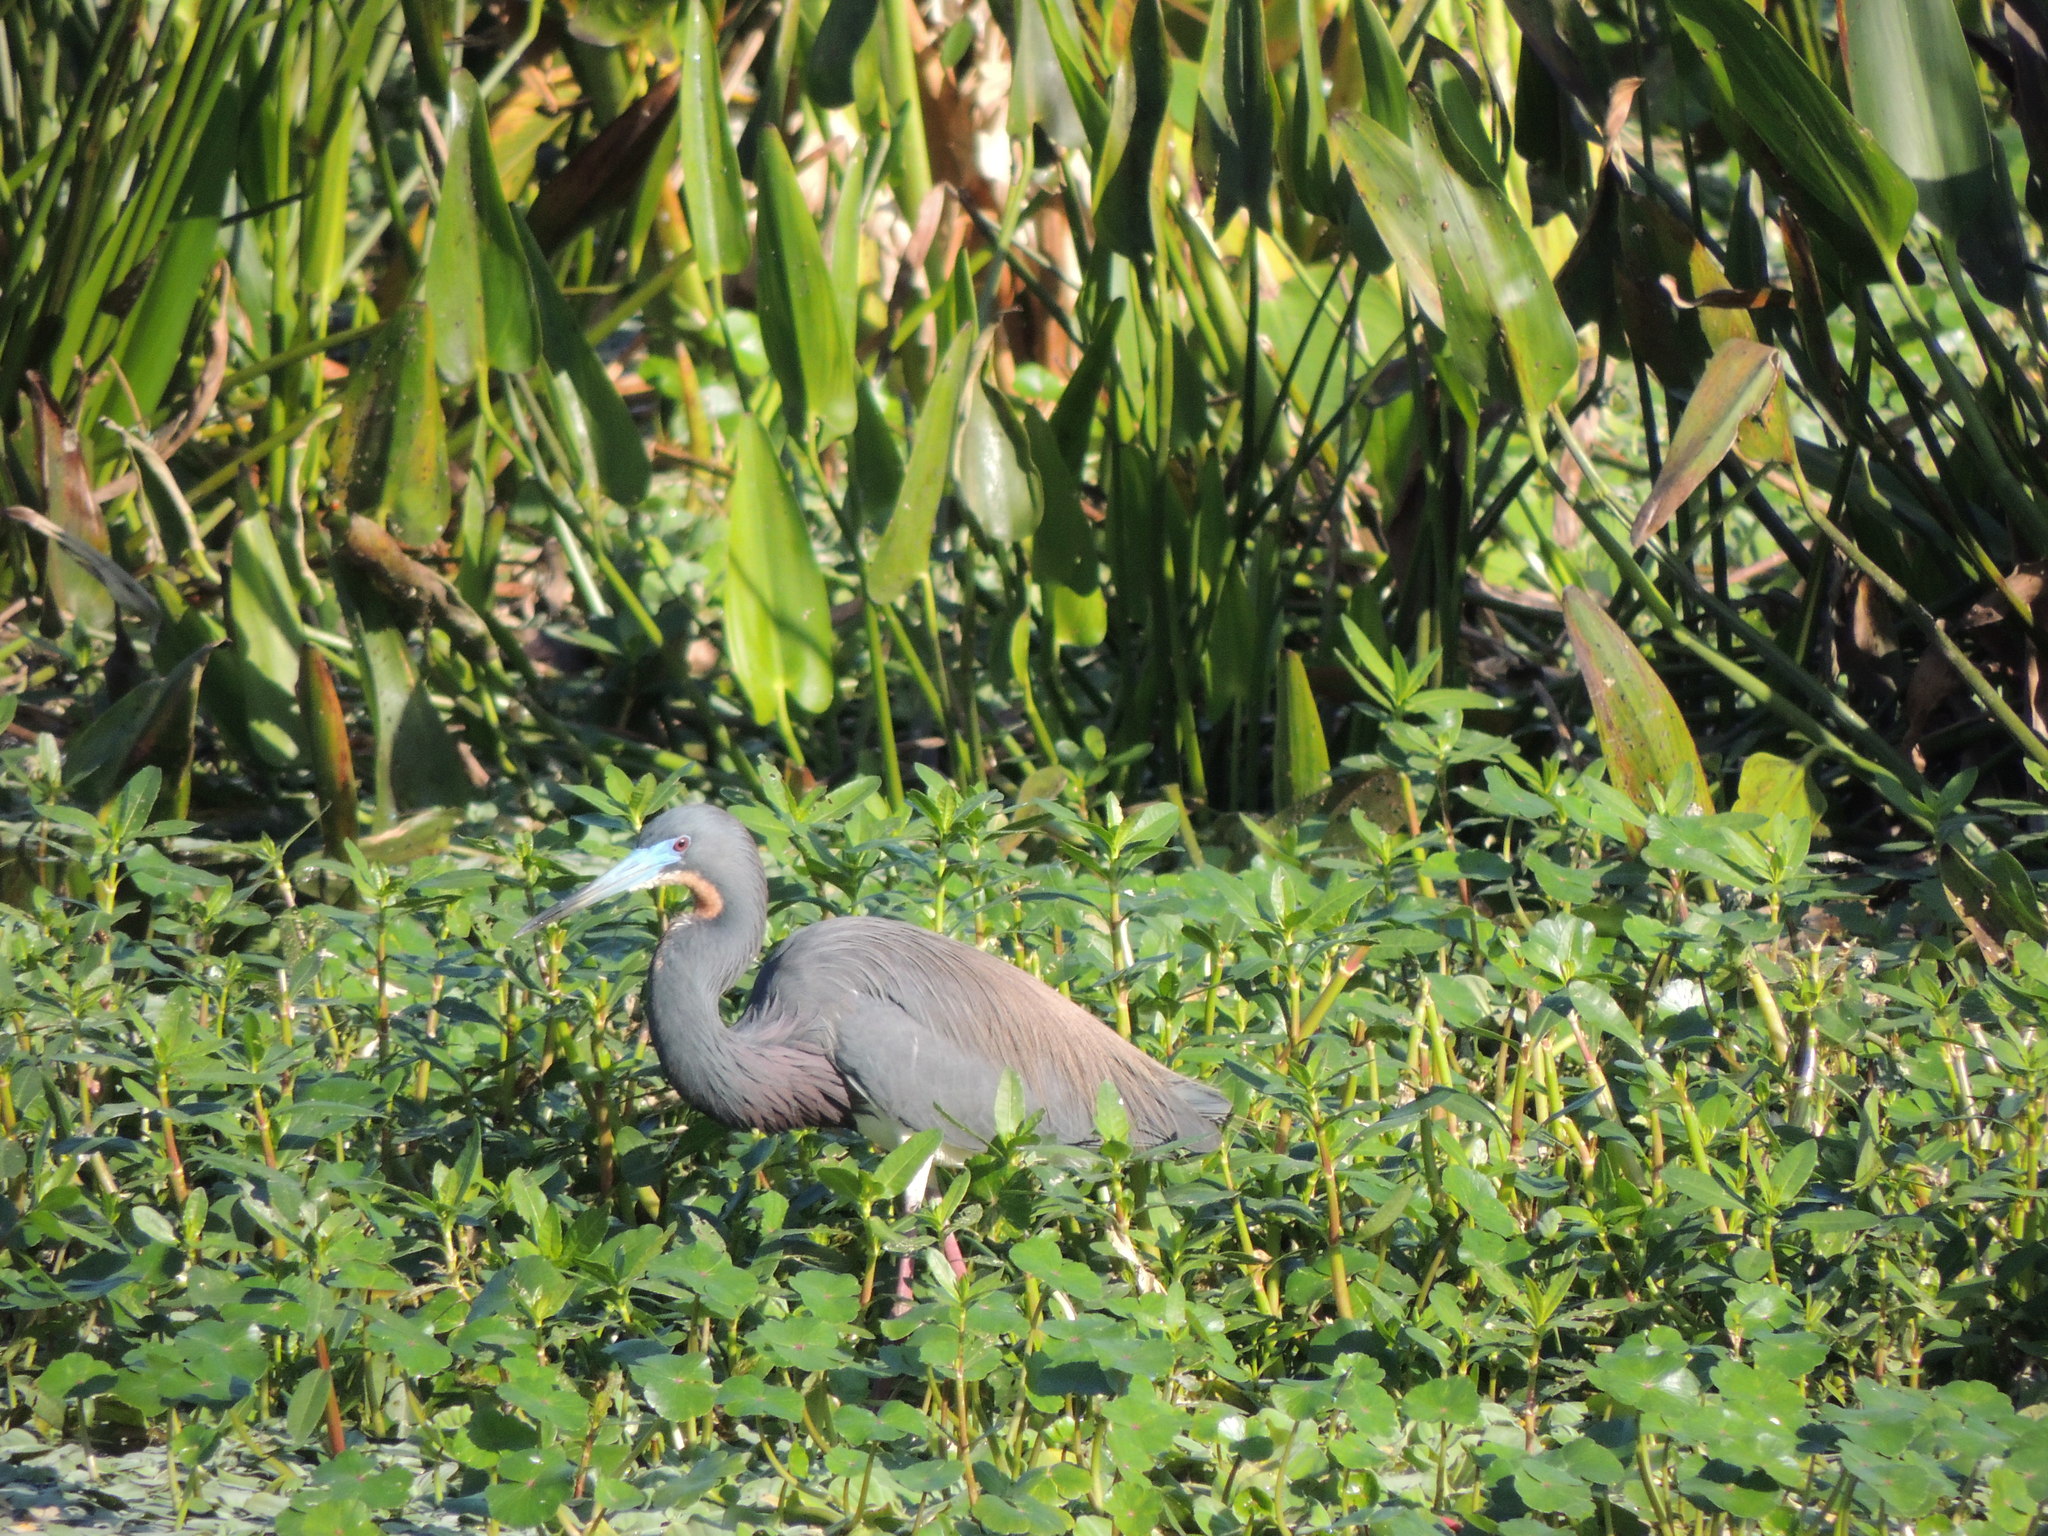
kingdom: Animalia
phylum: Chordata
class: Aves
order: Pelecaniformes
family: Ardeidae
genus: Egretta
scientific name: Egretta tricolor
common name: Tricolored heron
